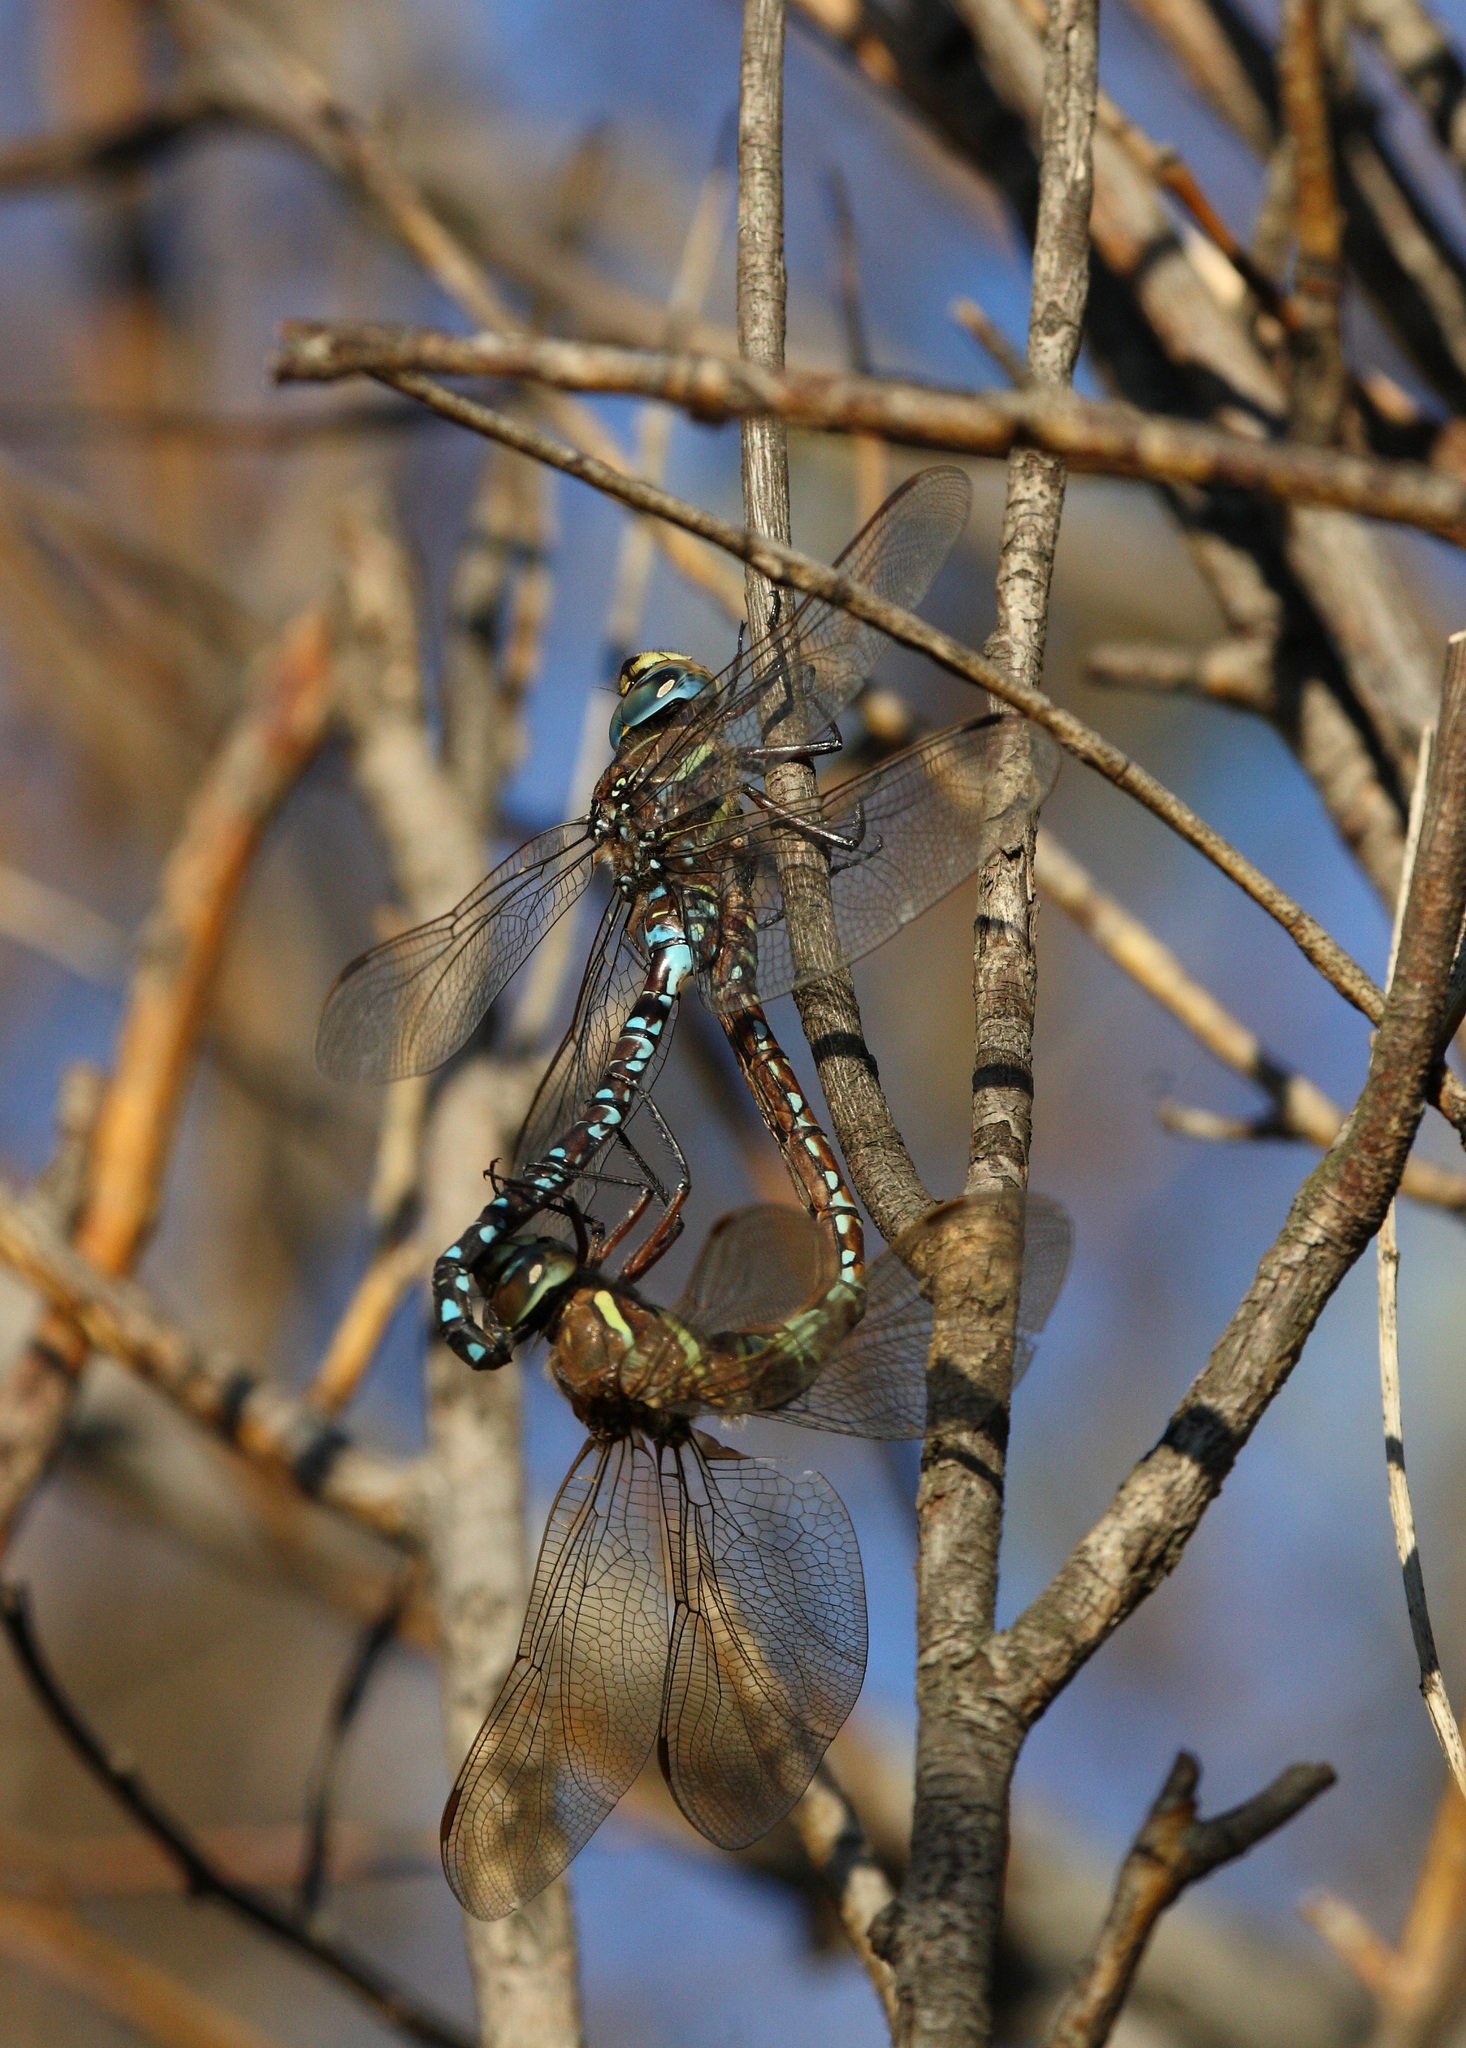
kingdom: Animalia
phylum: Arthropoda
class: Insecta
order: Odonata
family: Aeshnidae
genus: Aeshna
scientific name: Aeshna juncea
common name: Moorland hawker
